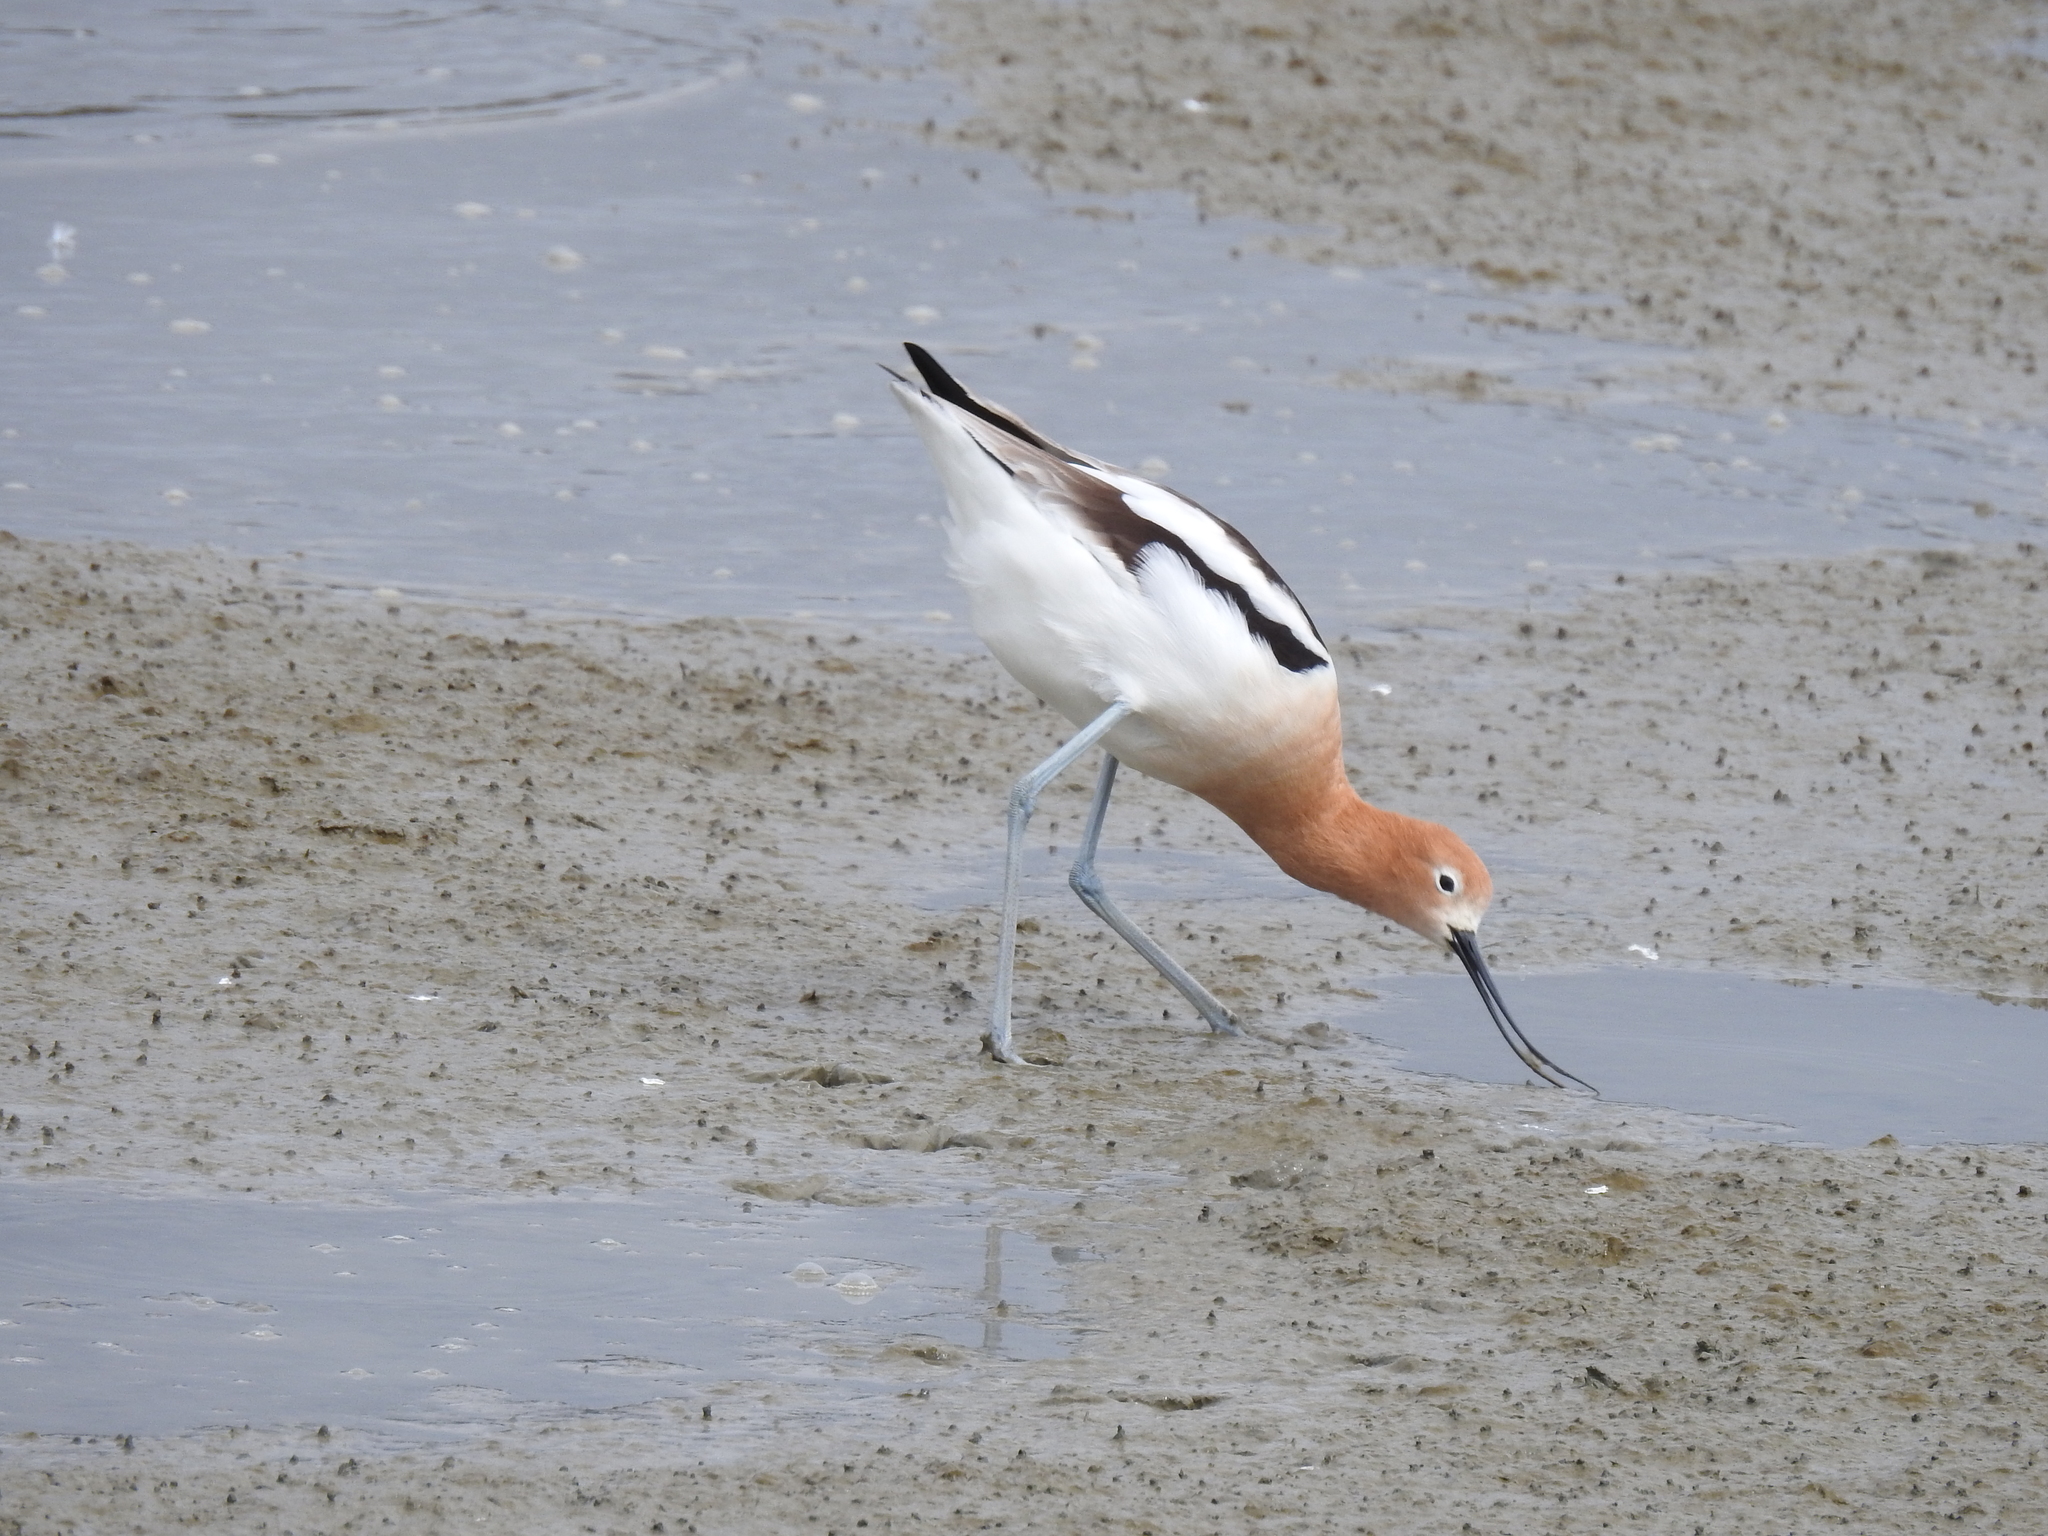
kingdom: Animalia
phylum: Chordata
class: Aves
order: Charadriiformes
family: Recurvirostridae
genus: Recurvirostra
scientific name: Recurvirostra americana
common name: American avocet
